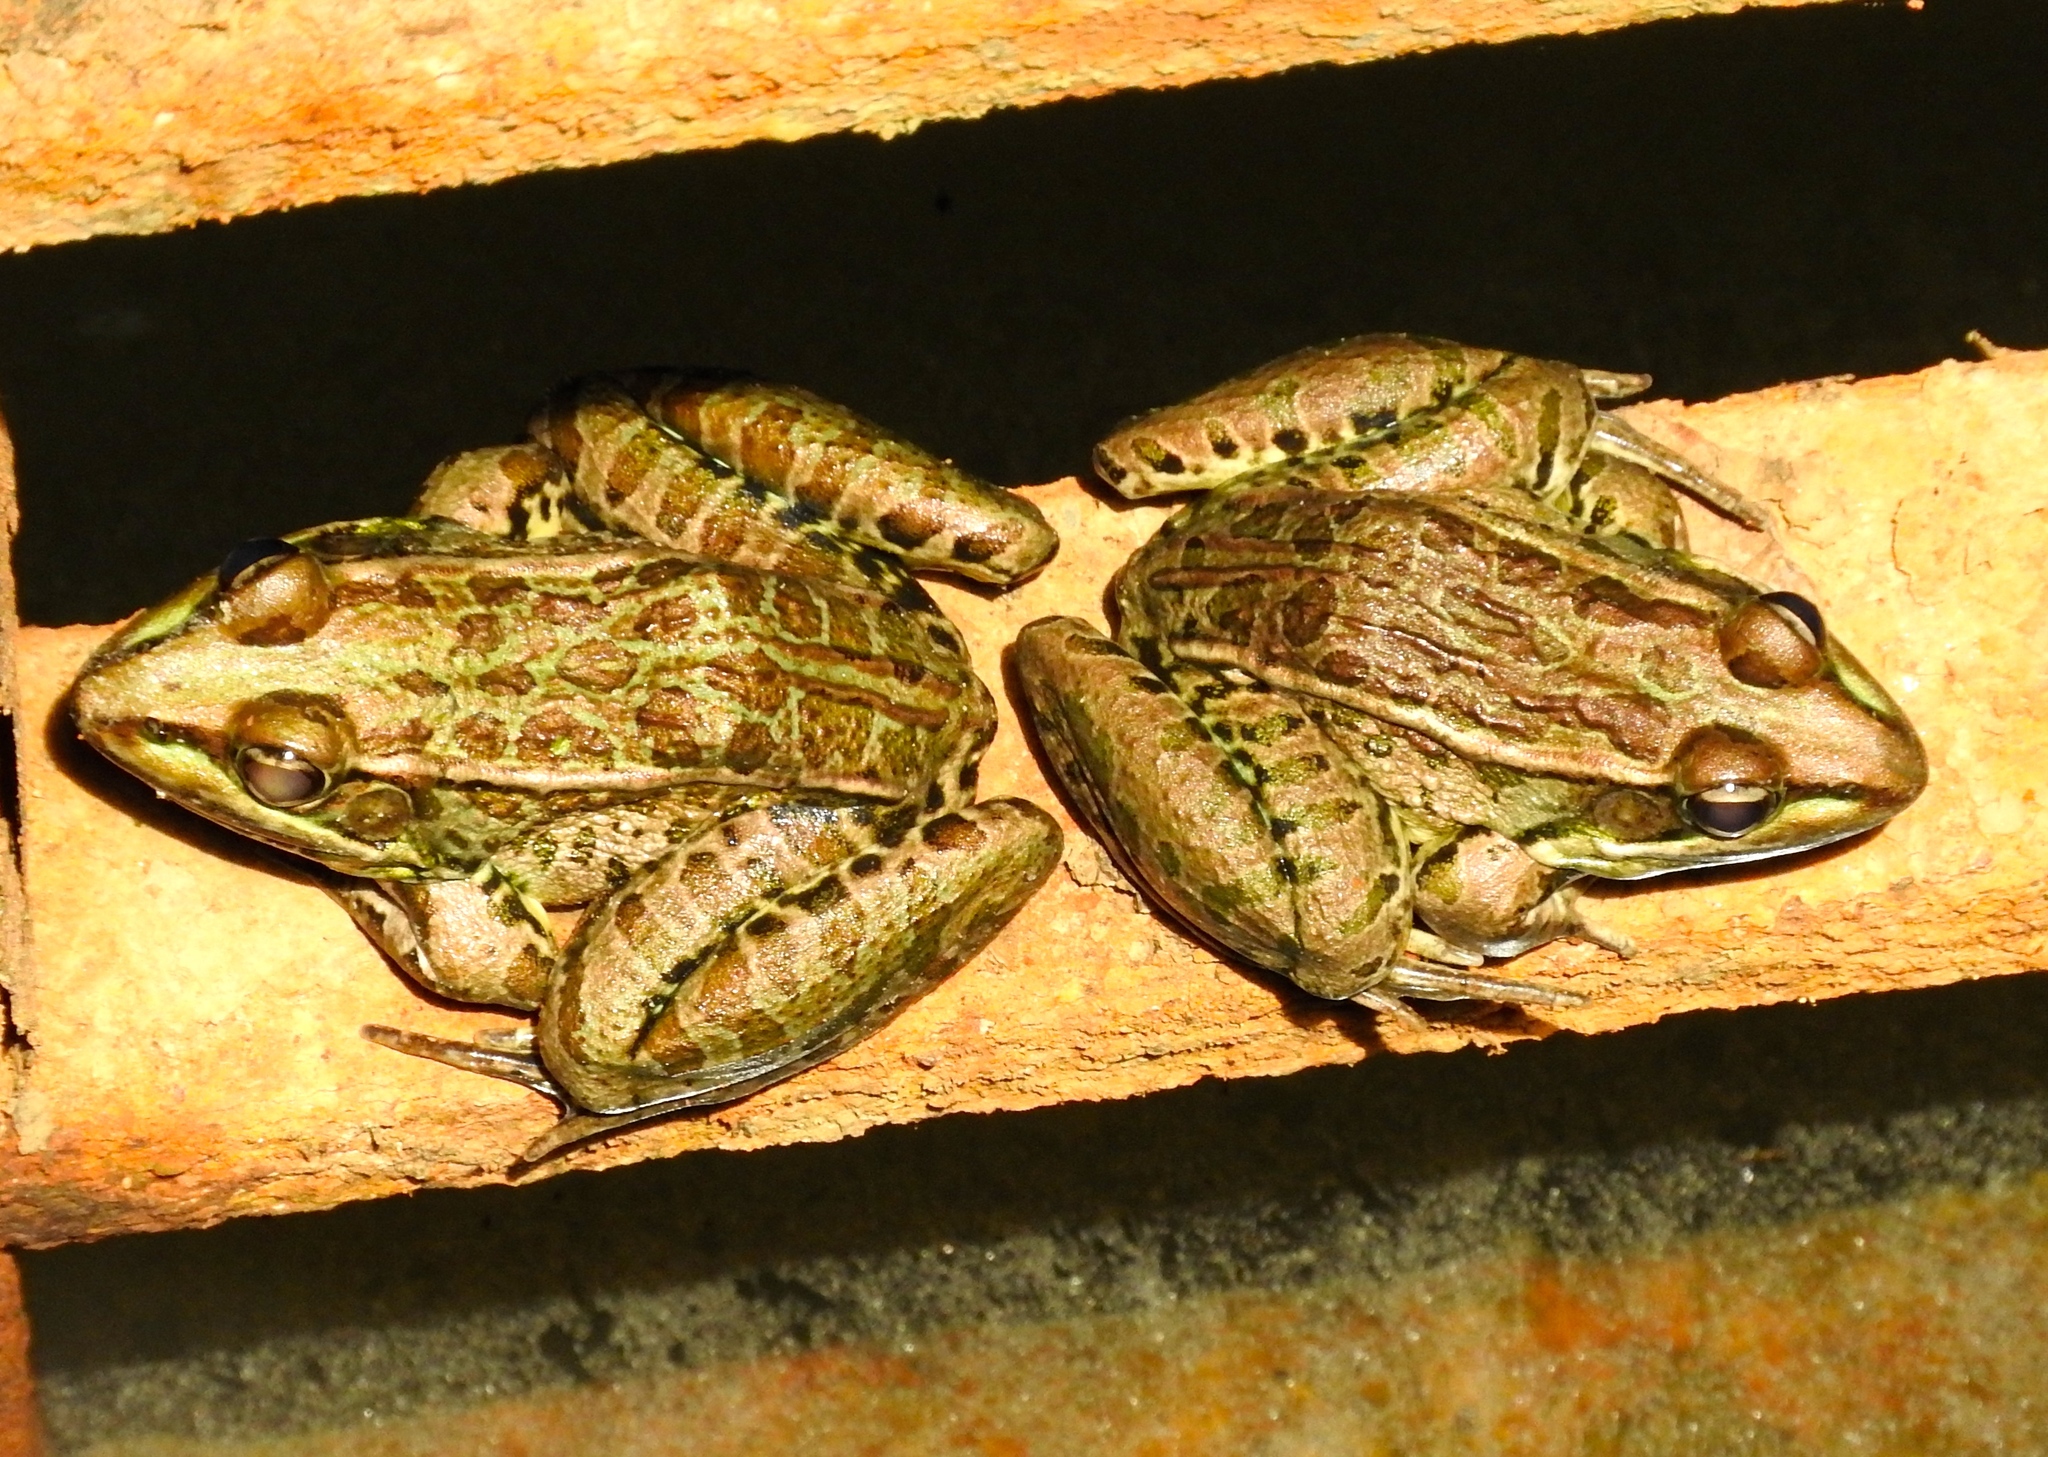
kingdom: Animalia
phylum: Chordata
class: Amphibia
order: Anura
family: Ranidae
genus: Lithobates
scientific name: Lithobates
